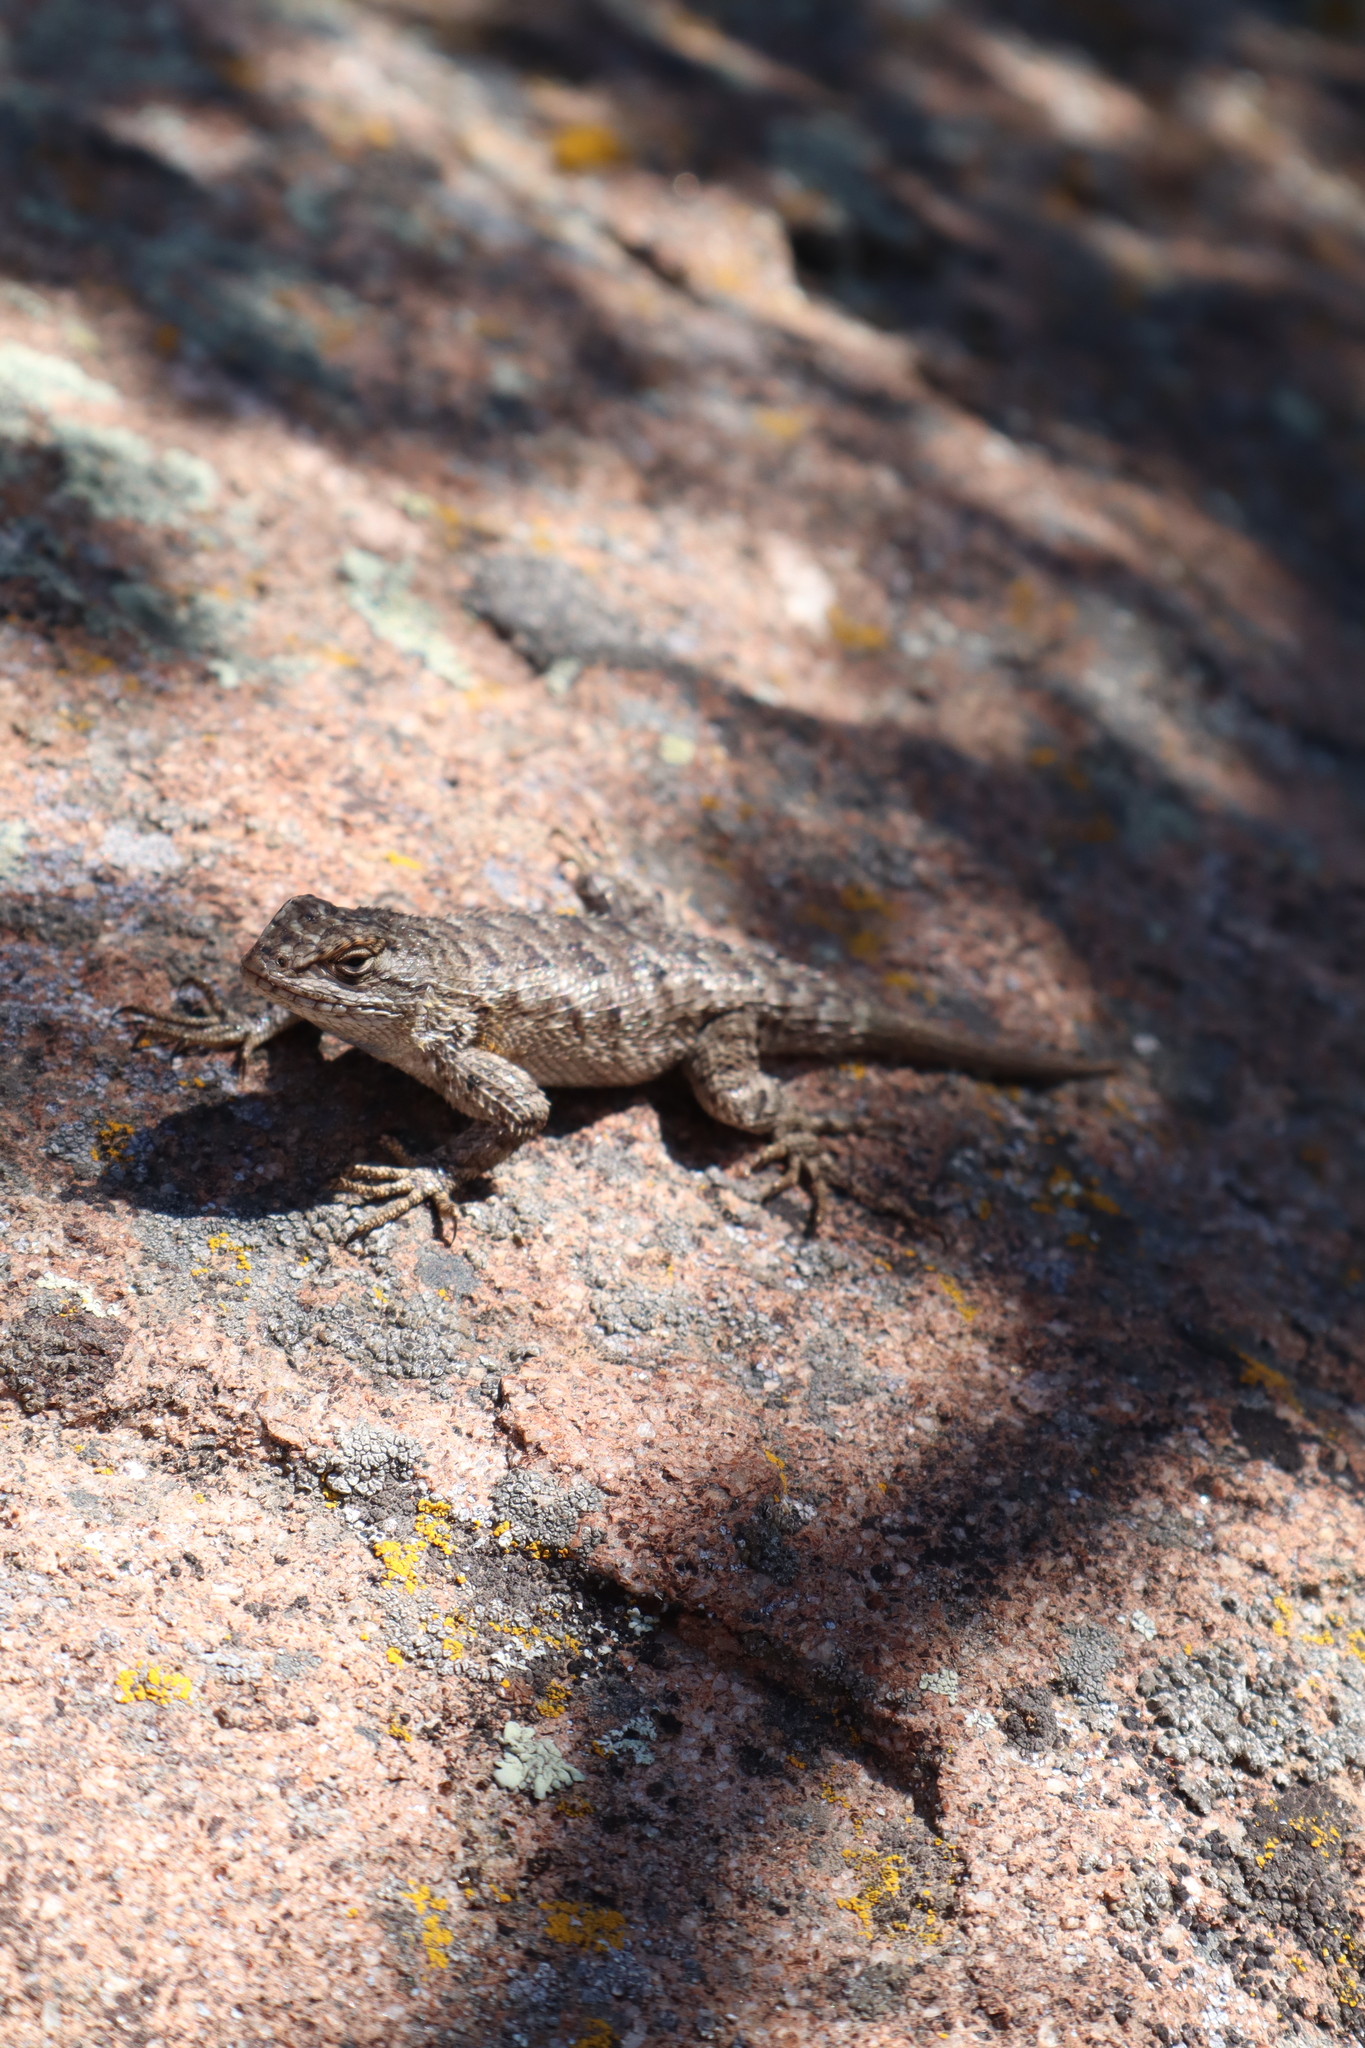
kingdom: Animalia
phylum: Chordata
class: Squamata
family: Phrynosomatidae
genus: Sceloporus
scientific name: Sceloporus occidentalis
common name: Western fence lizard
